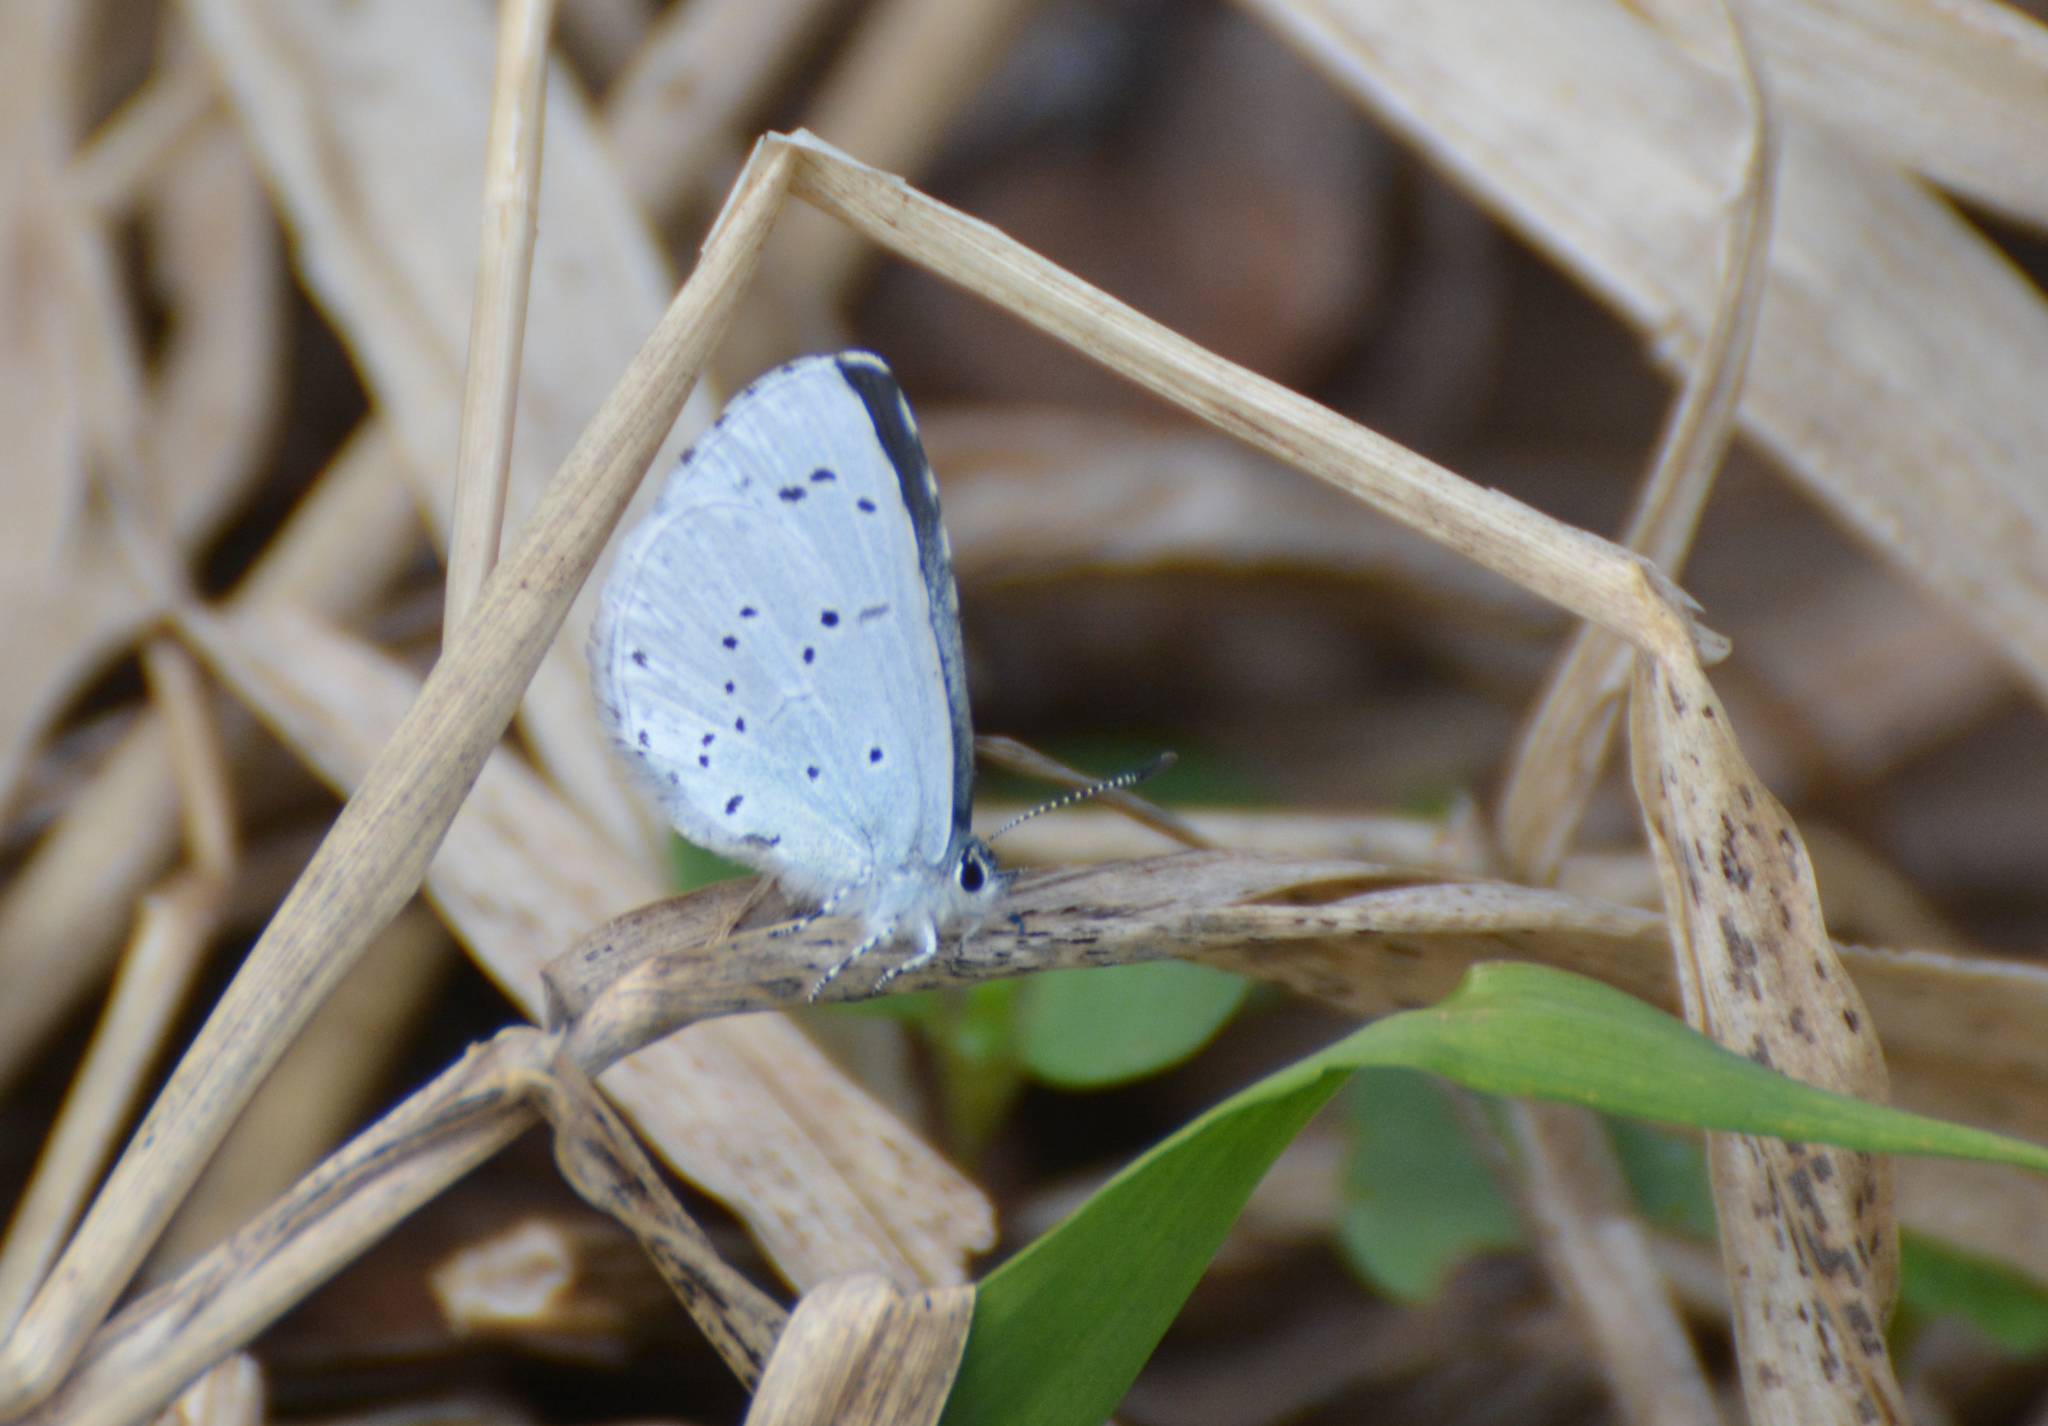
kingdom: Animalia
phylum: Arthropoda
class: Insecta
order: Lepidoptera
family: Lycaenidae
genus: Celastrina
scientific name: Celastrina argiolus
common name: Holly blue
